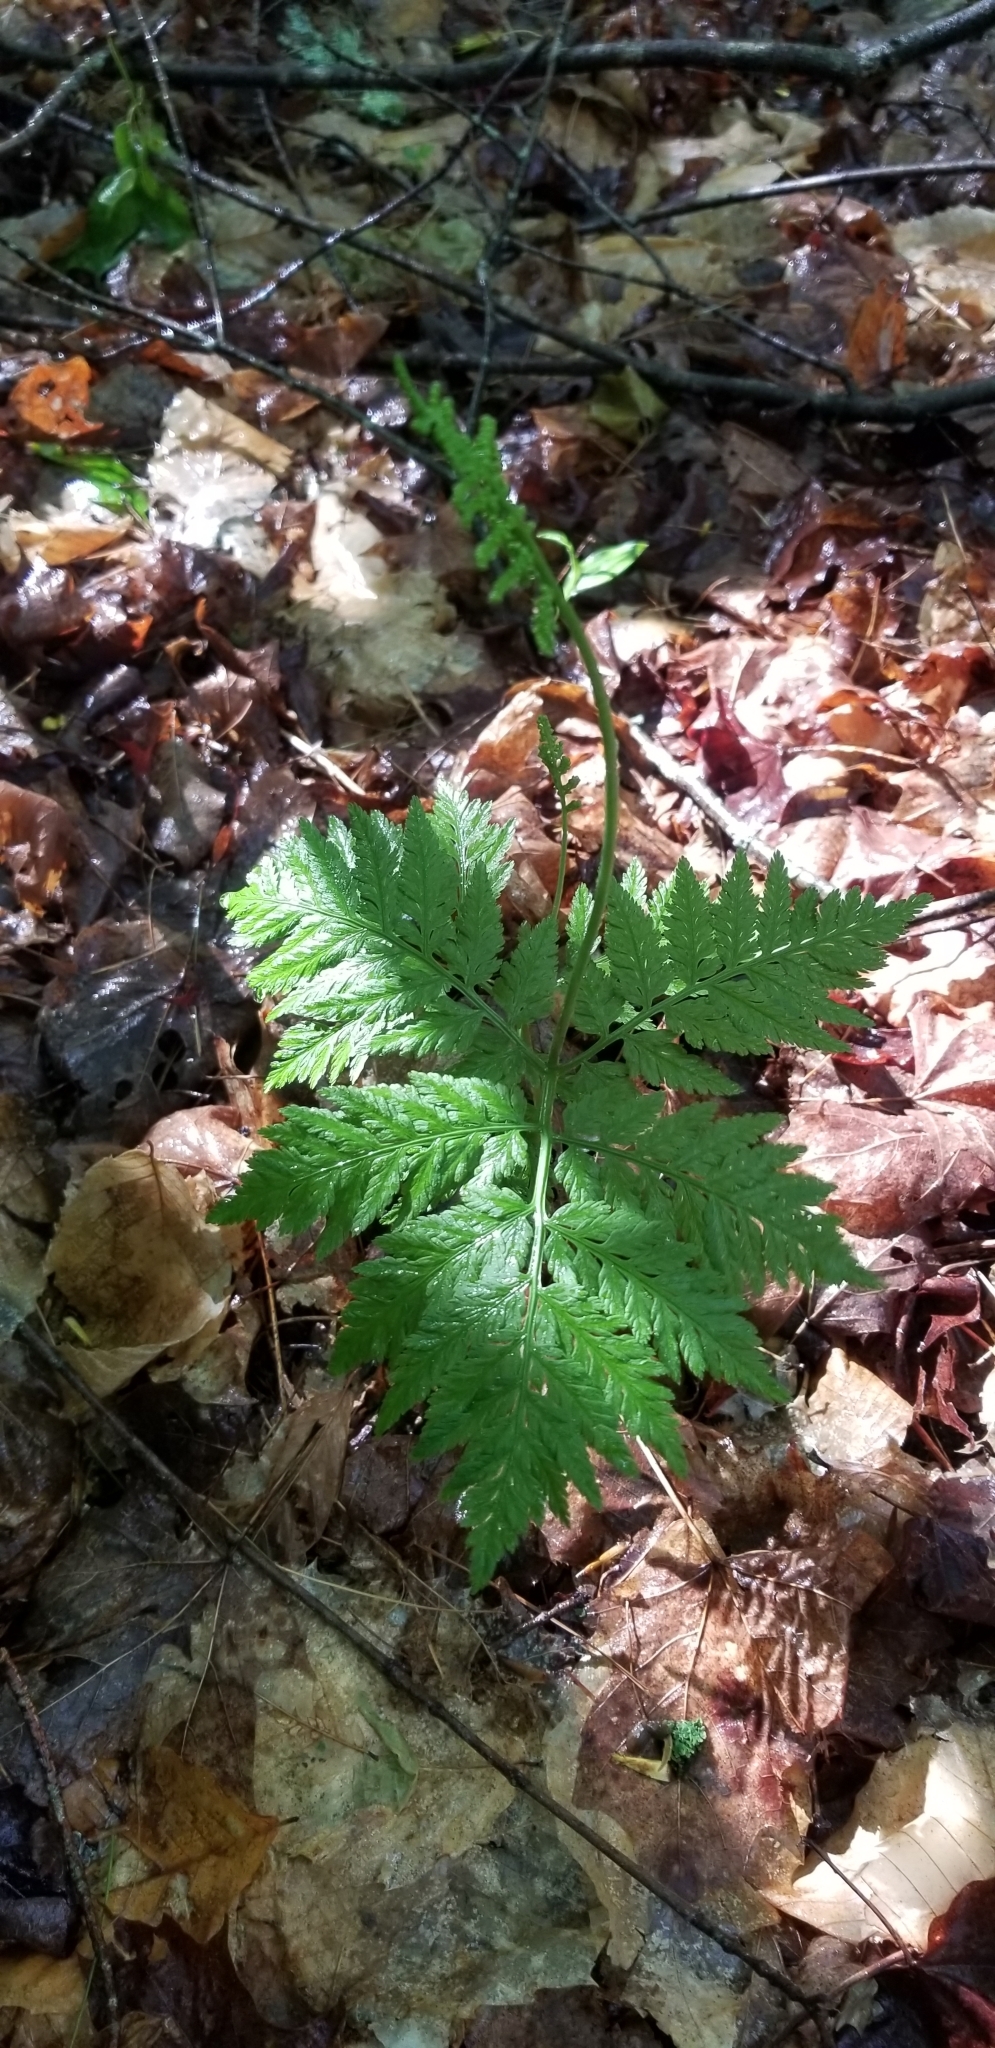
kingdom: Plantae
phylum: Tracheophyta
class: Polypodiopsida
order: Ophioglossales
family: Ophioglossaceae
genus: Botrypus
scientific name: Botrypus virginianus
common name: Common grapefern
